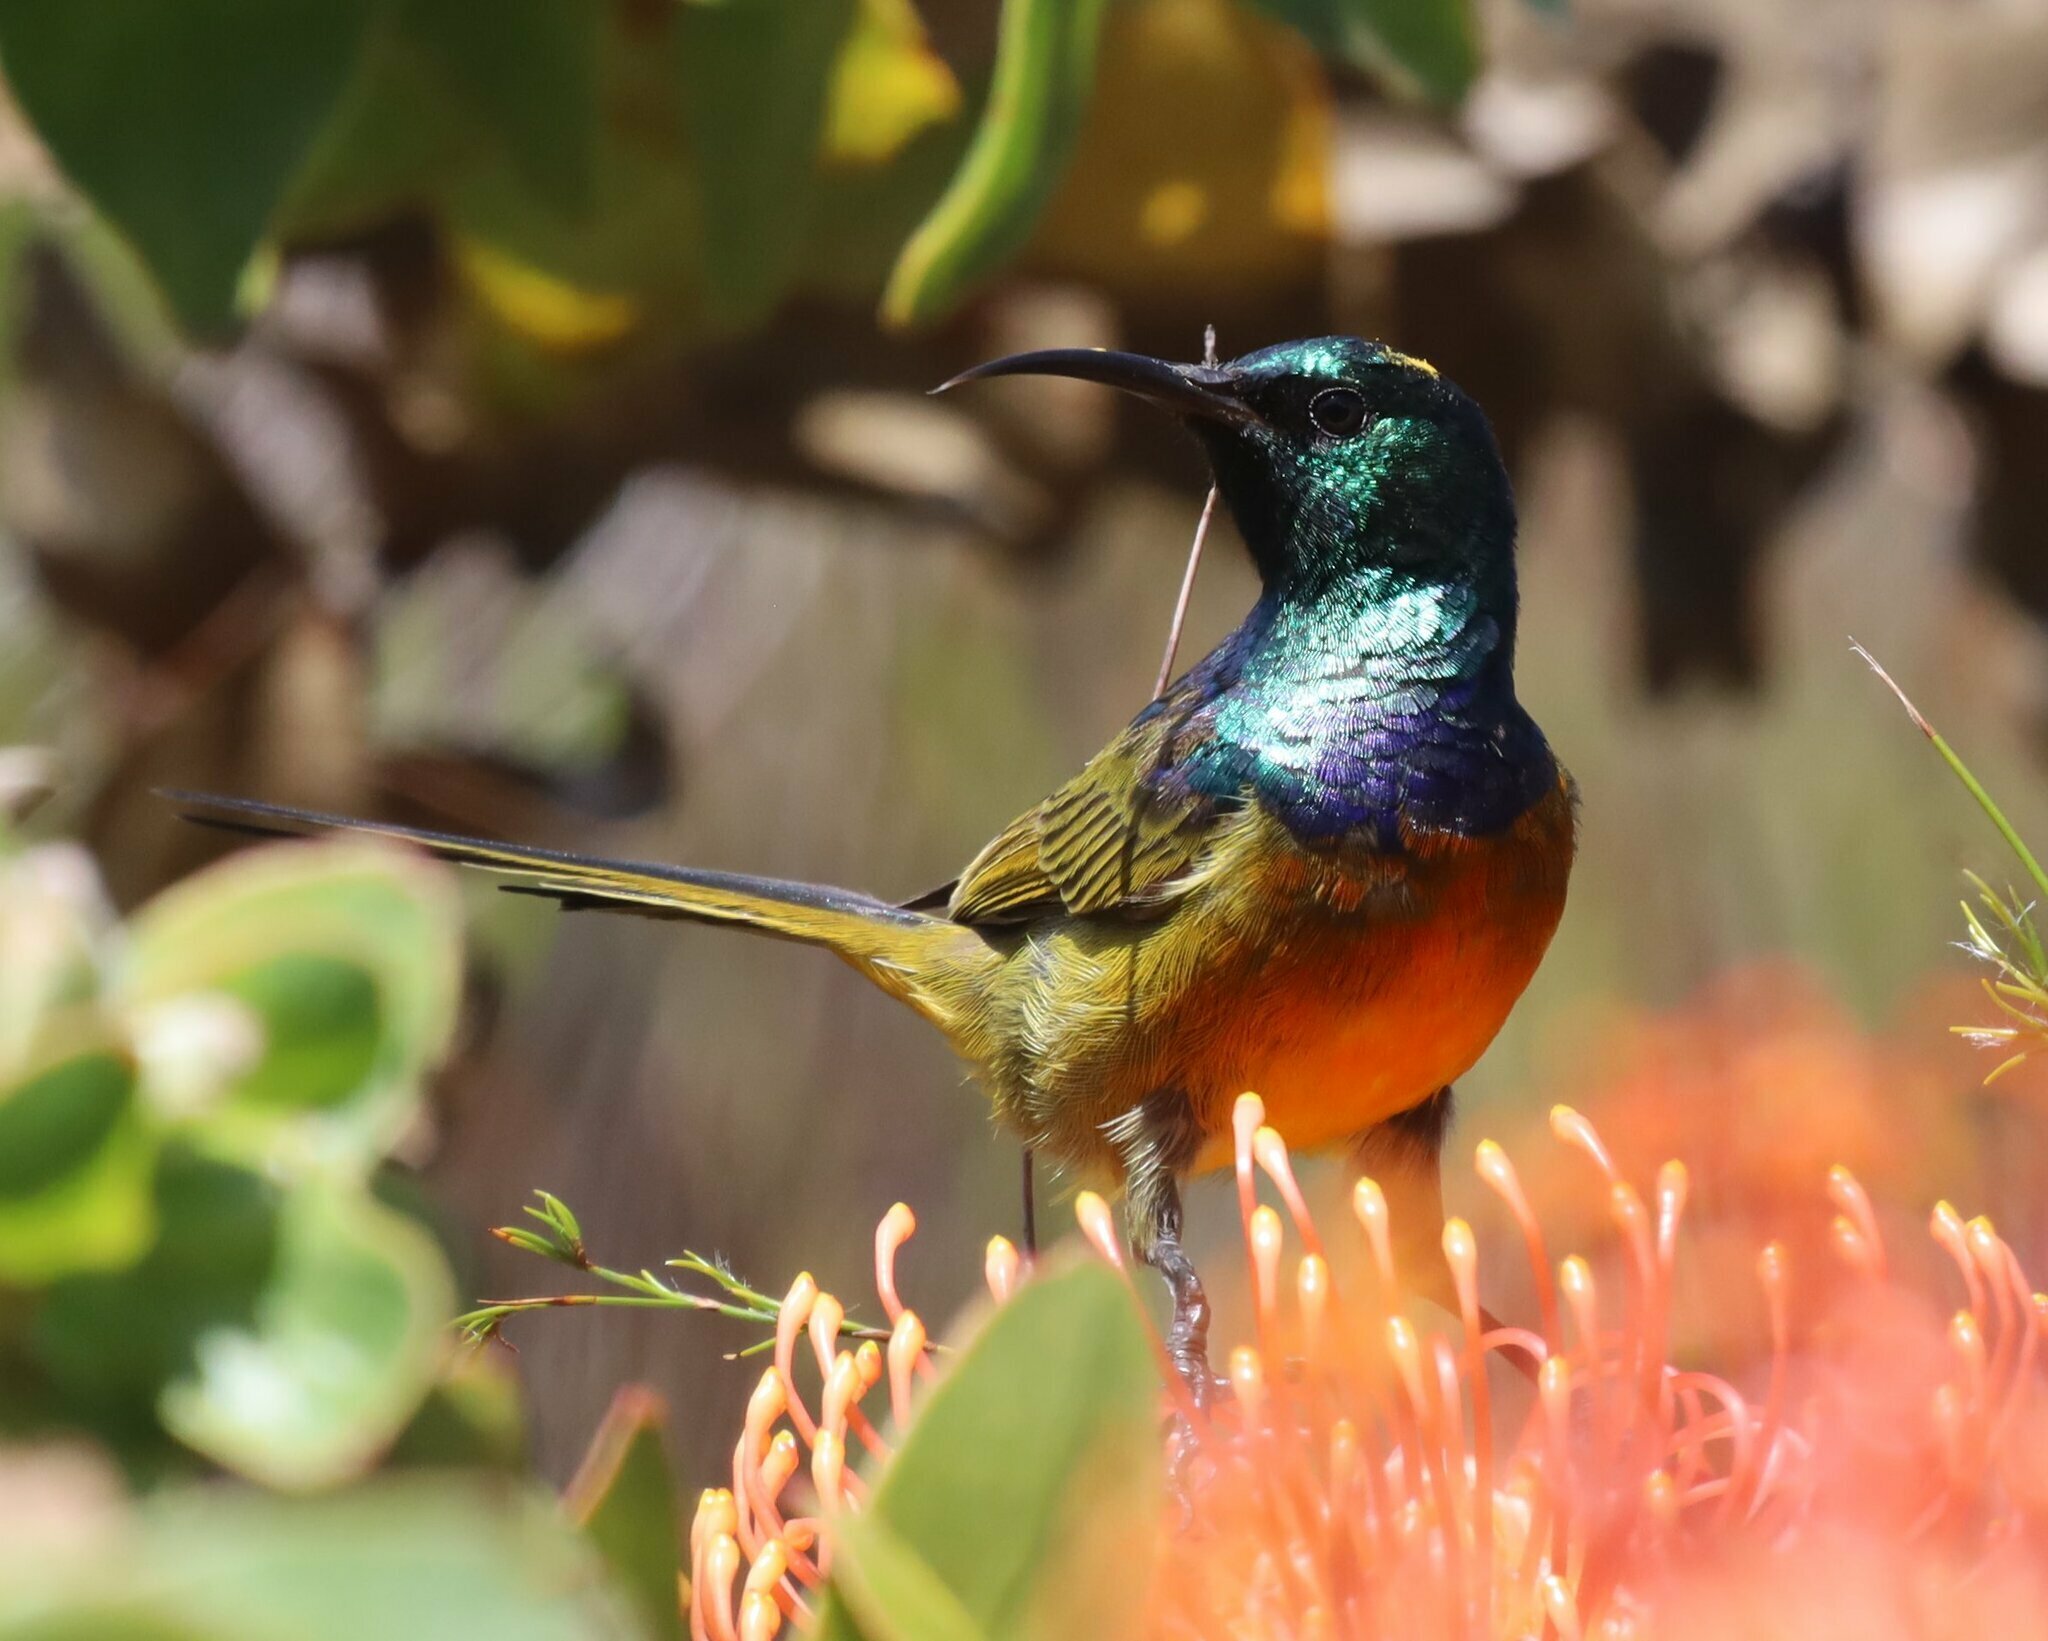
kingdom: Animalia
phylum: Chordata
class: Aves
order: Passeriformes
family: Nectariniidae
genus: Anthobaphes
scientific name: Anthobaphes violacea
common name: Orange-breasted sunbird
